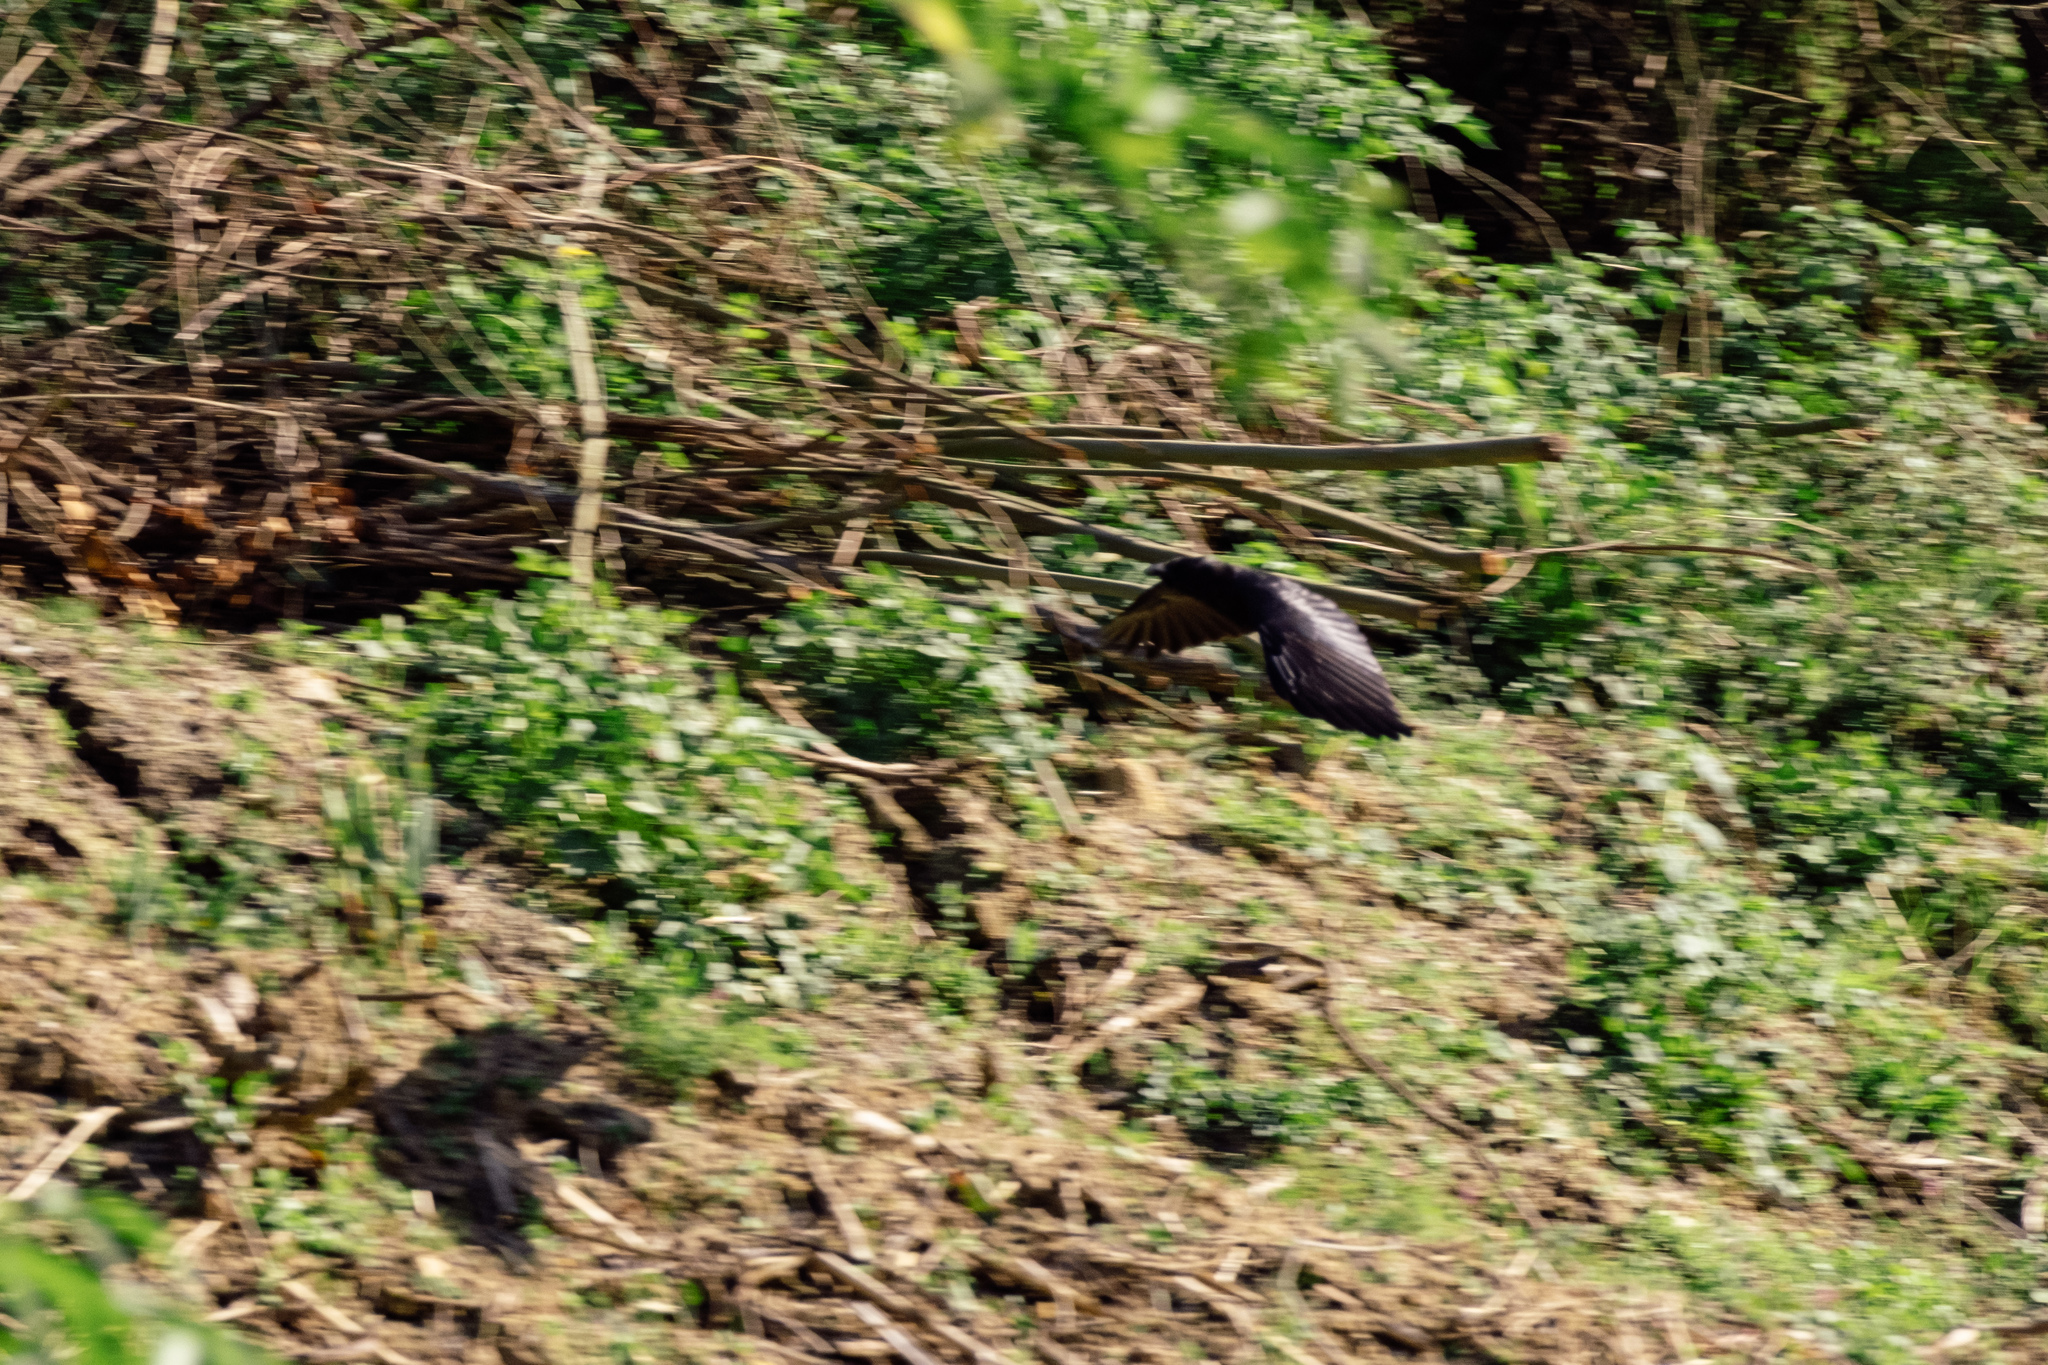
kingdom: Animalia
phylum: Chordata
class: Aves
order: Passeriformes
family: Corvidae
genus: Corvus
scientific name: Corvus corone
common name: Carrion crow
